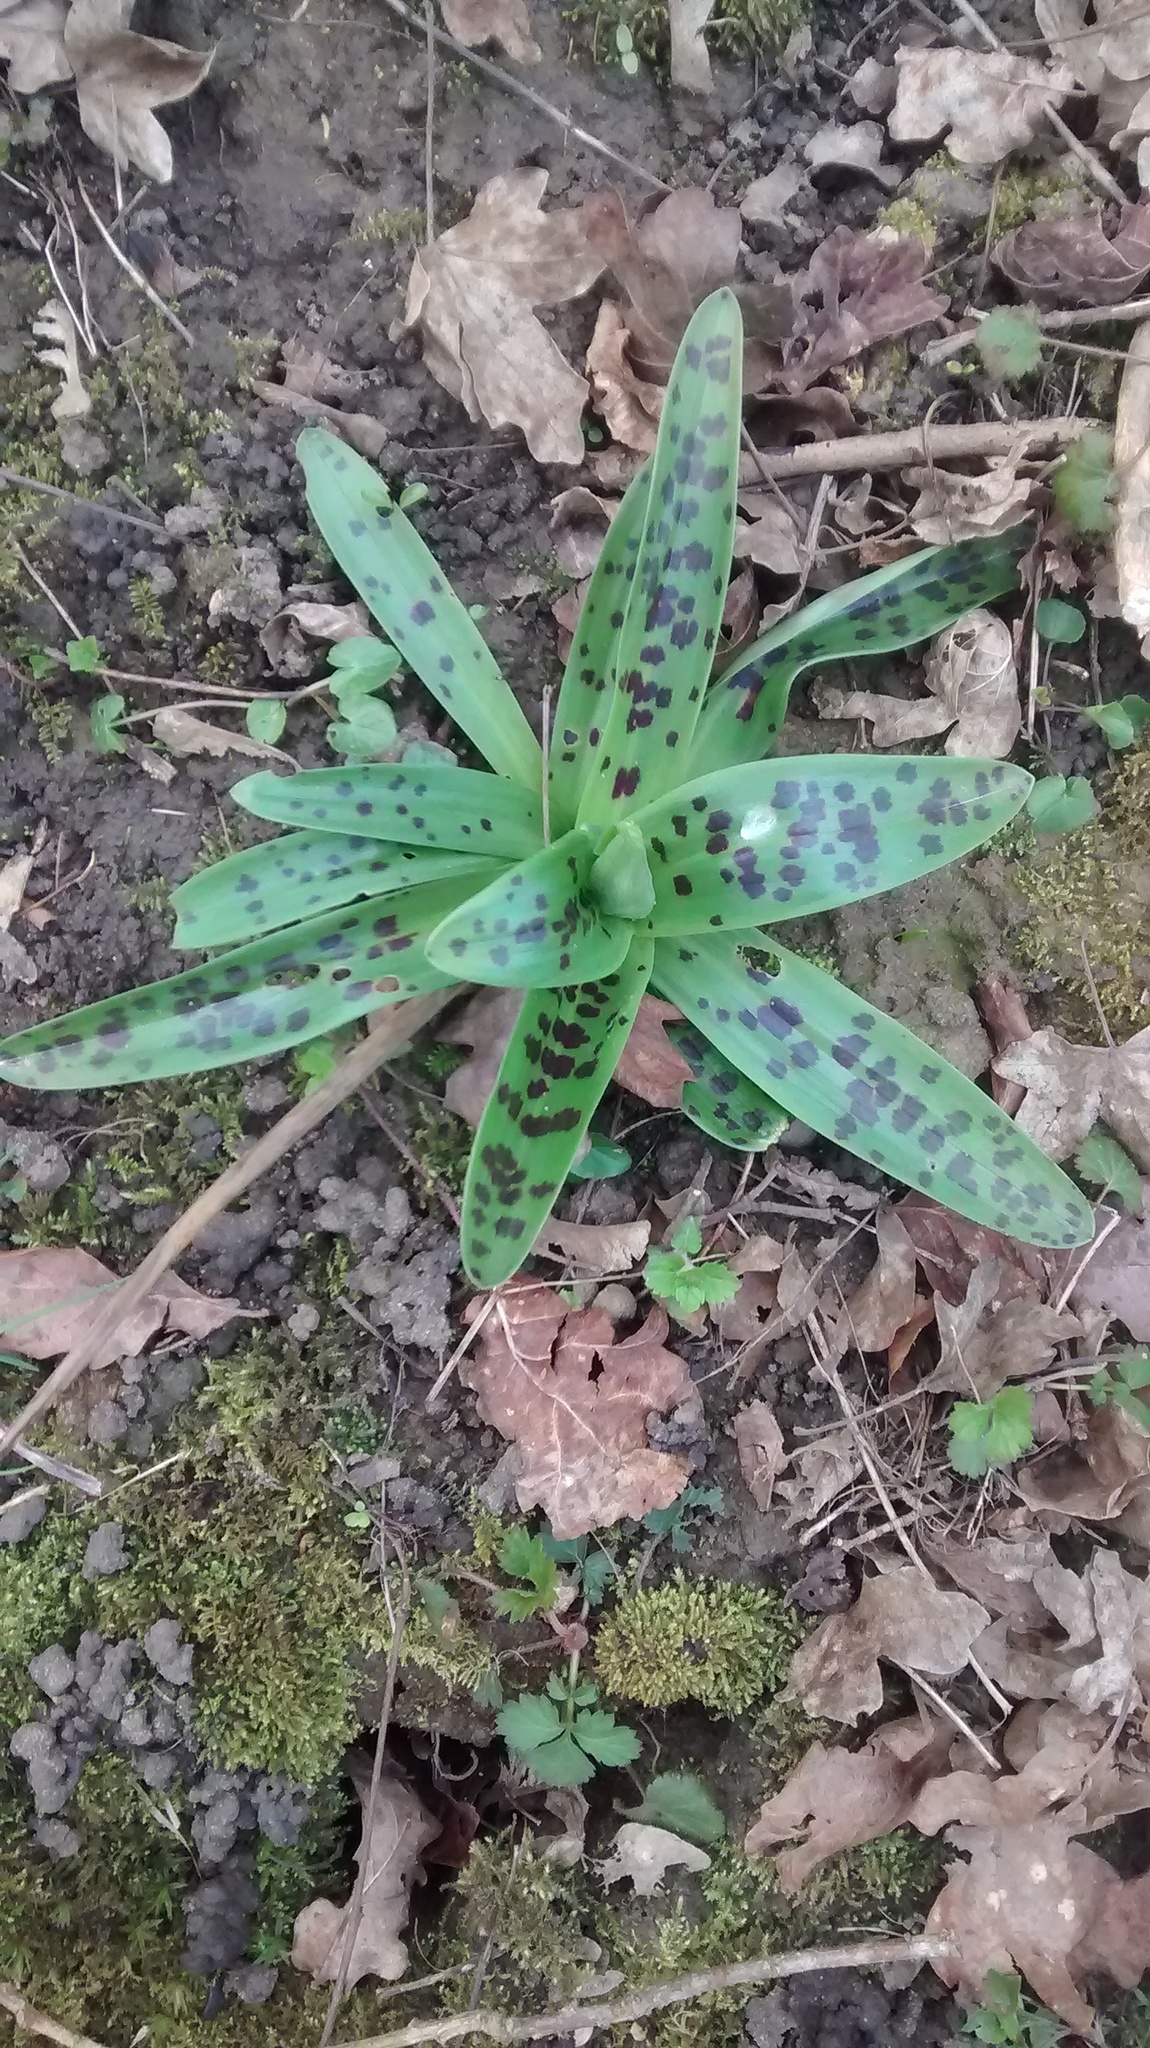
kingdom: Plantae
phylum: Tracheophyta
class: Liliopsida
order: Asparagales
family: Orchidaceae
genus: Orchis
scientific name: Orchis mascula
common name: Early-purple orchid
